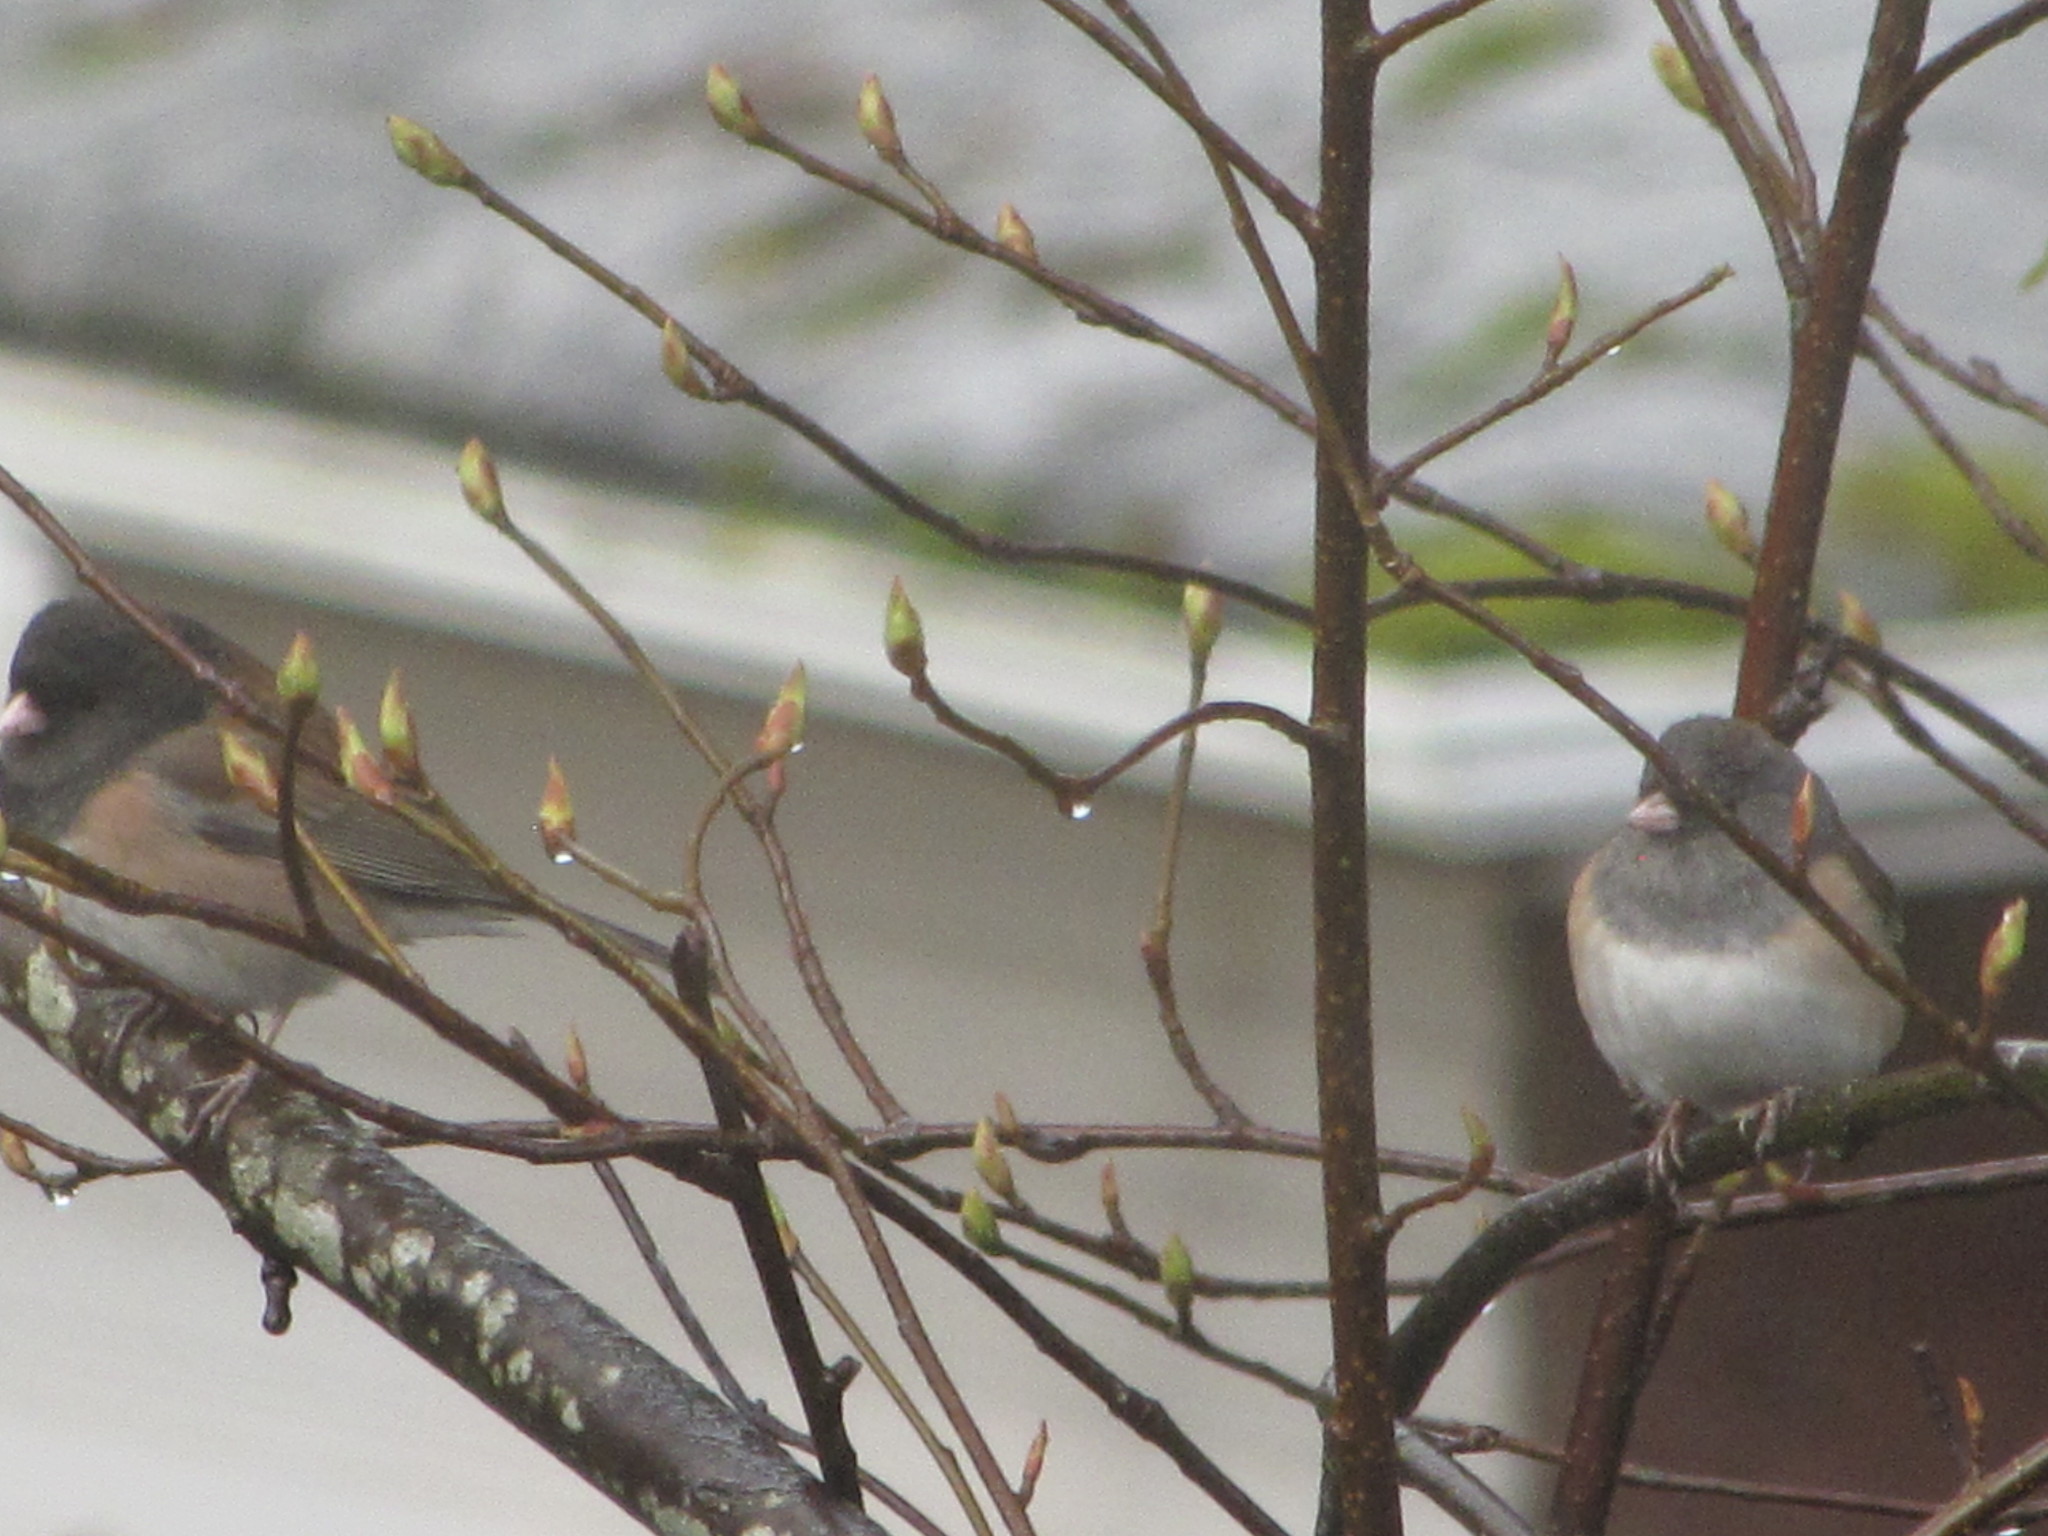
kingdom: Animalia
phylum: Chordata
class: Aves
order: Passeriformes
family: Passerellidae
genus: Junco
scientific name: Junco hyemalis
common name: Dark-eyed junco
